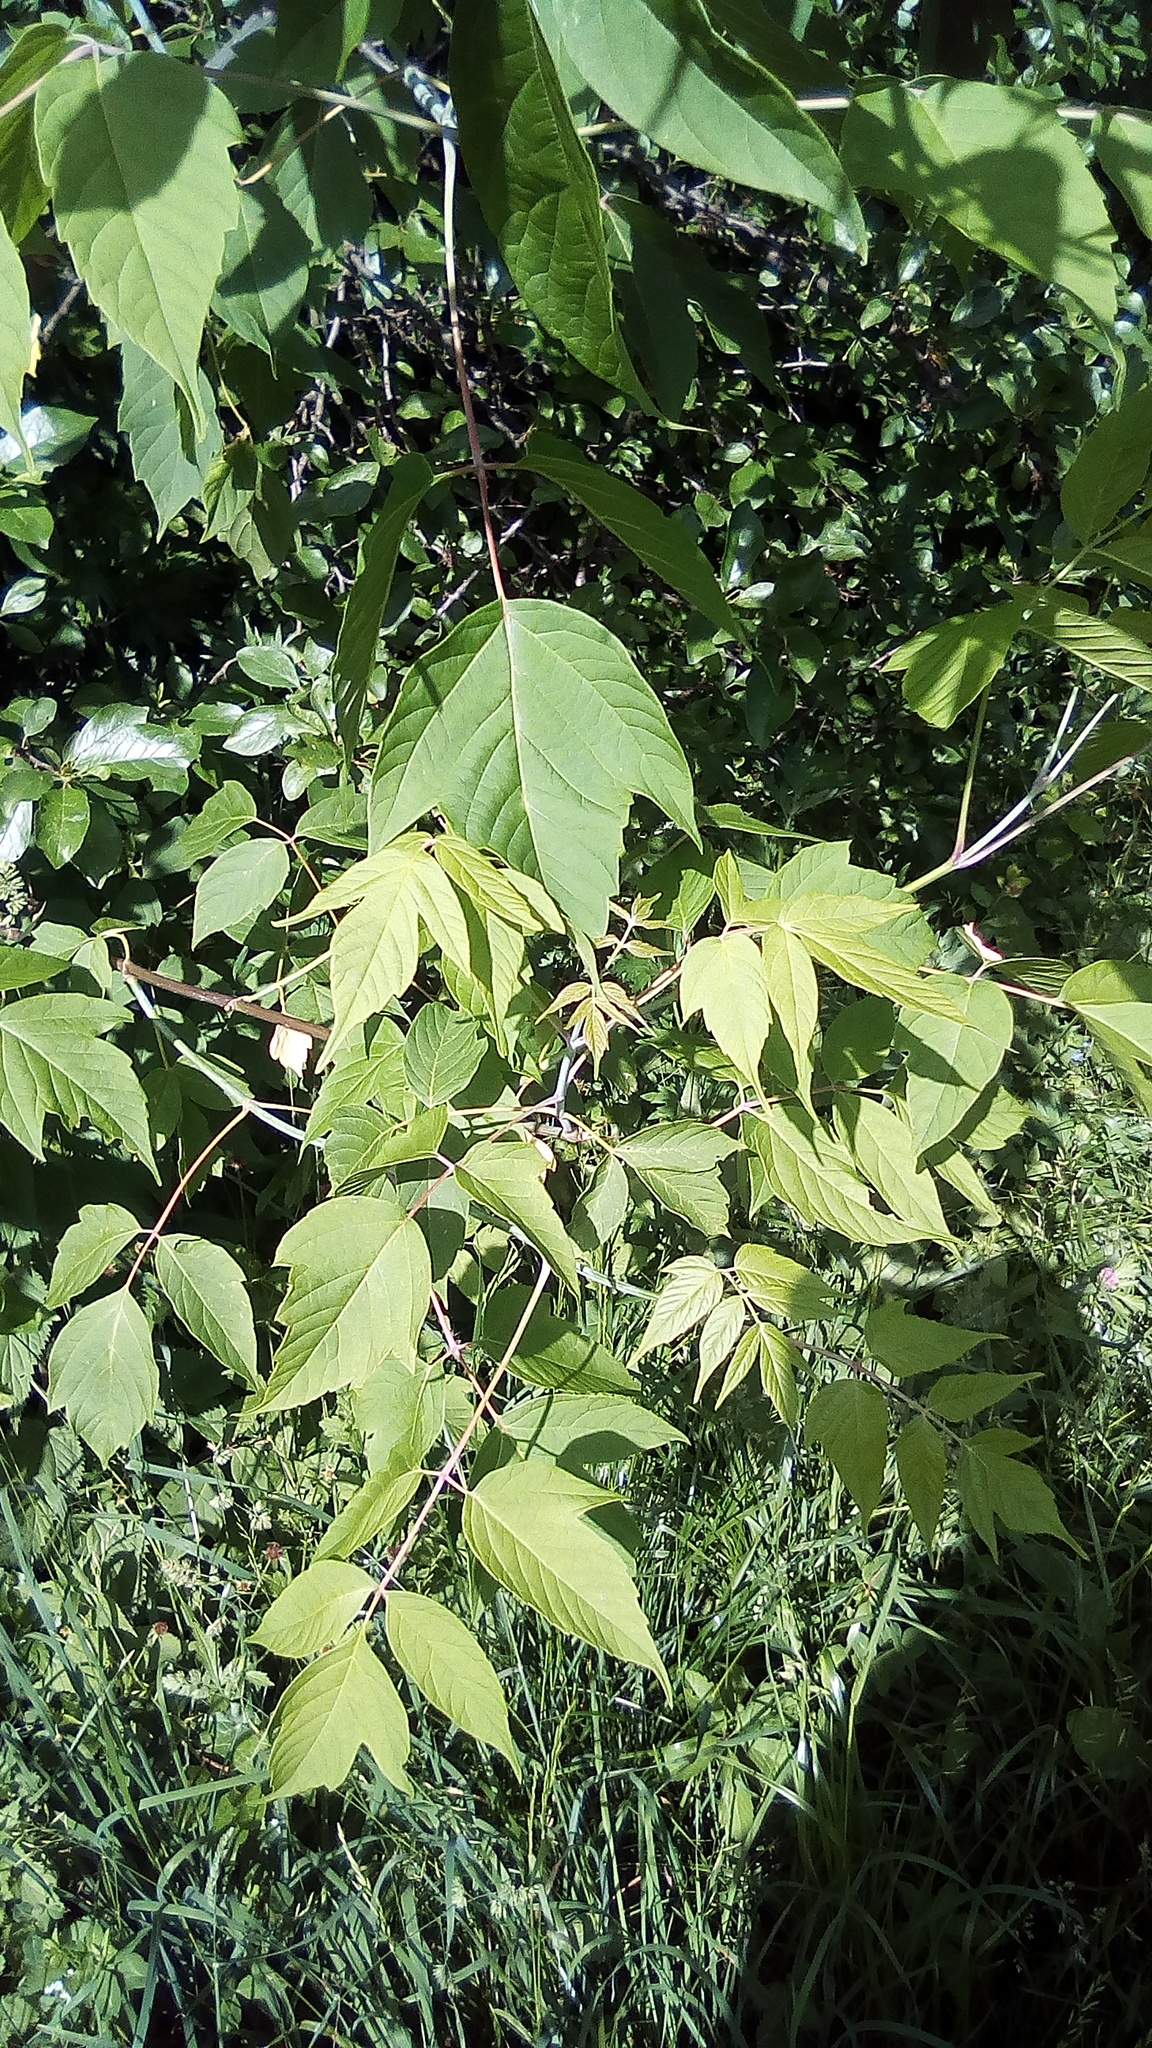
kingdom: Plantae
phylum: Tracheophyta
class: Magnoliopsida
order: Sapindales
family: Sapindaceae
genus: Acer
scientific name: Acer negundo
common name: Ashleaf maple
